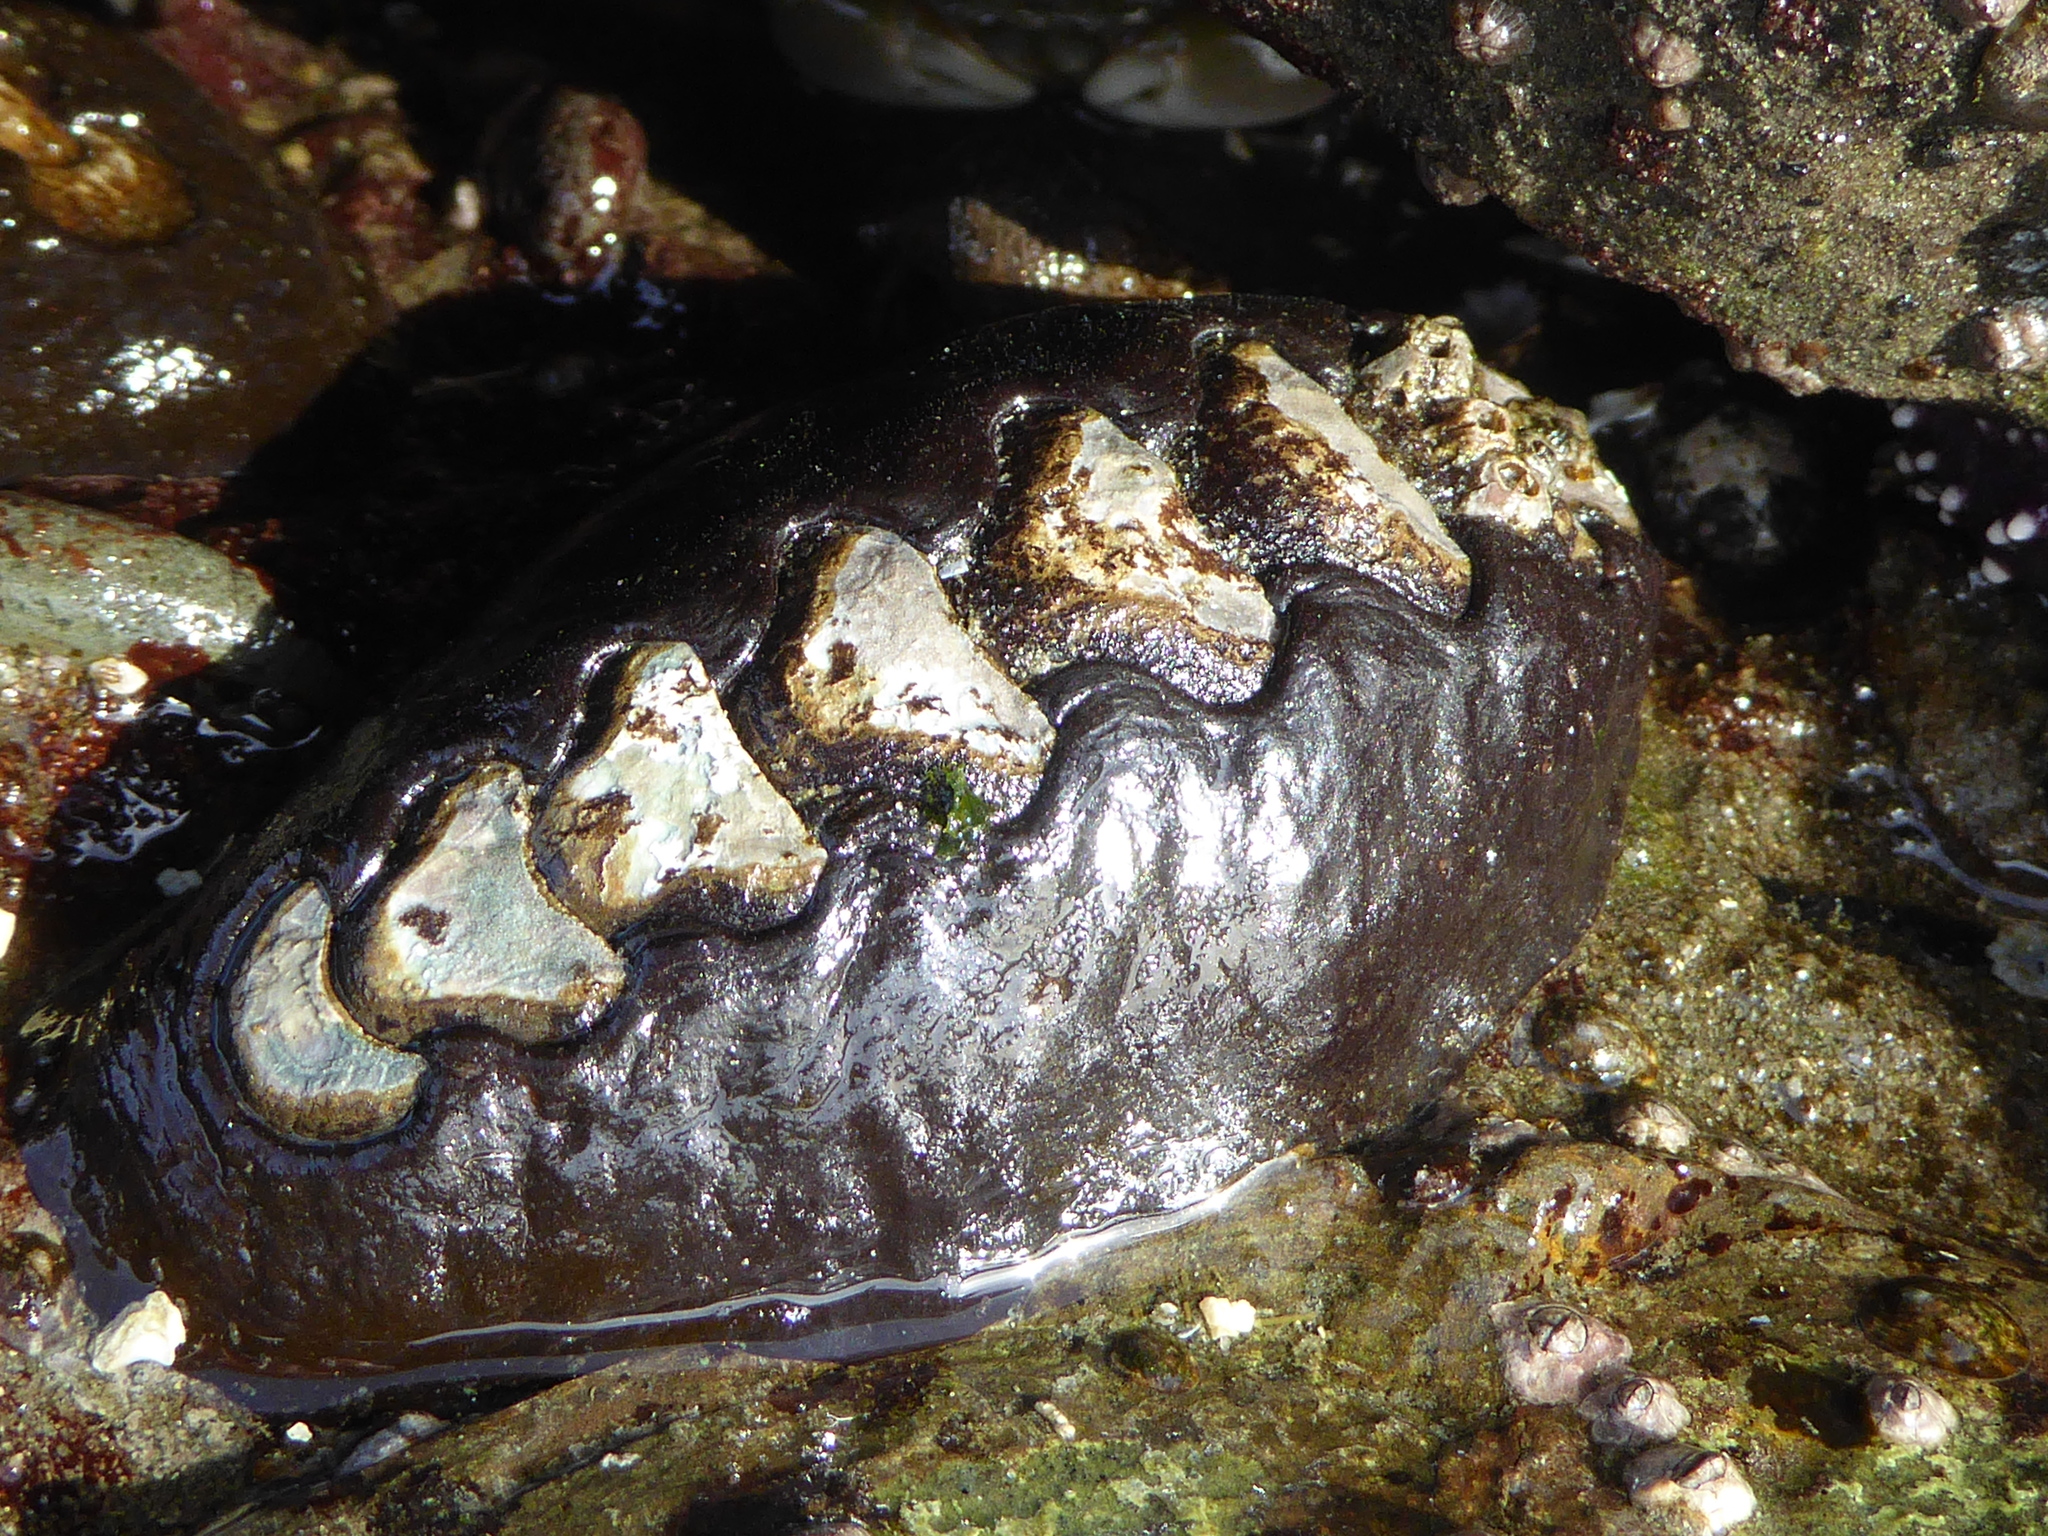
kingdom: Animalia
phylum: Mollusca
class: Polyplacophora
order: Chitonida
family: Mopaliidae
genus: Katharina
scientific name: Katharina tunicata
